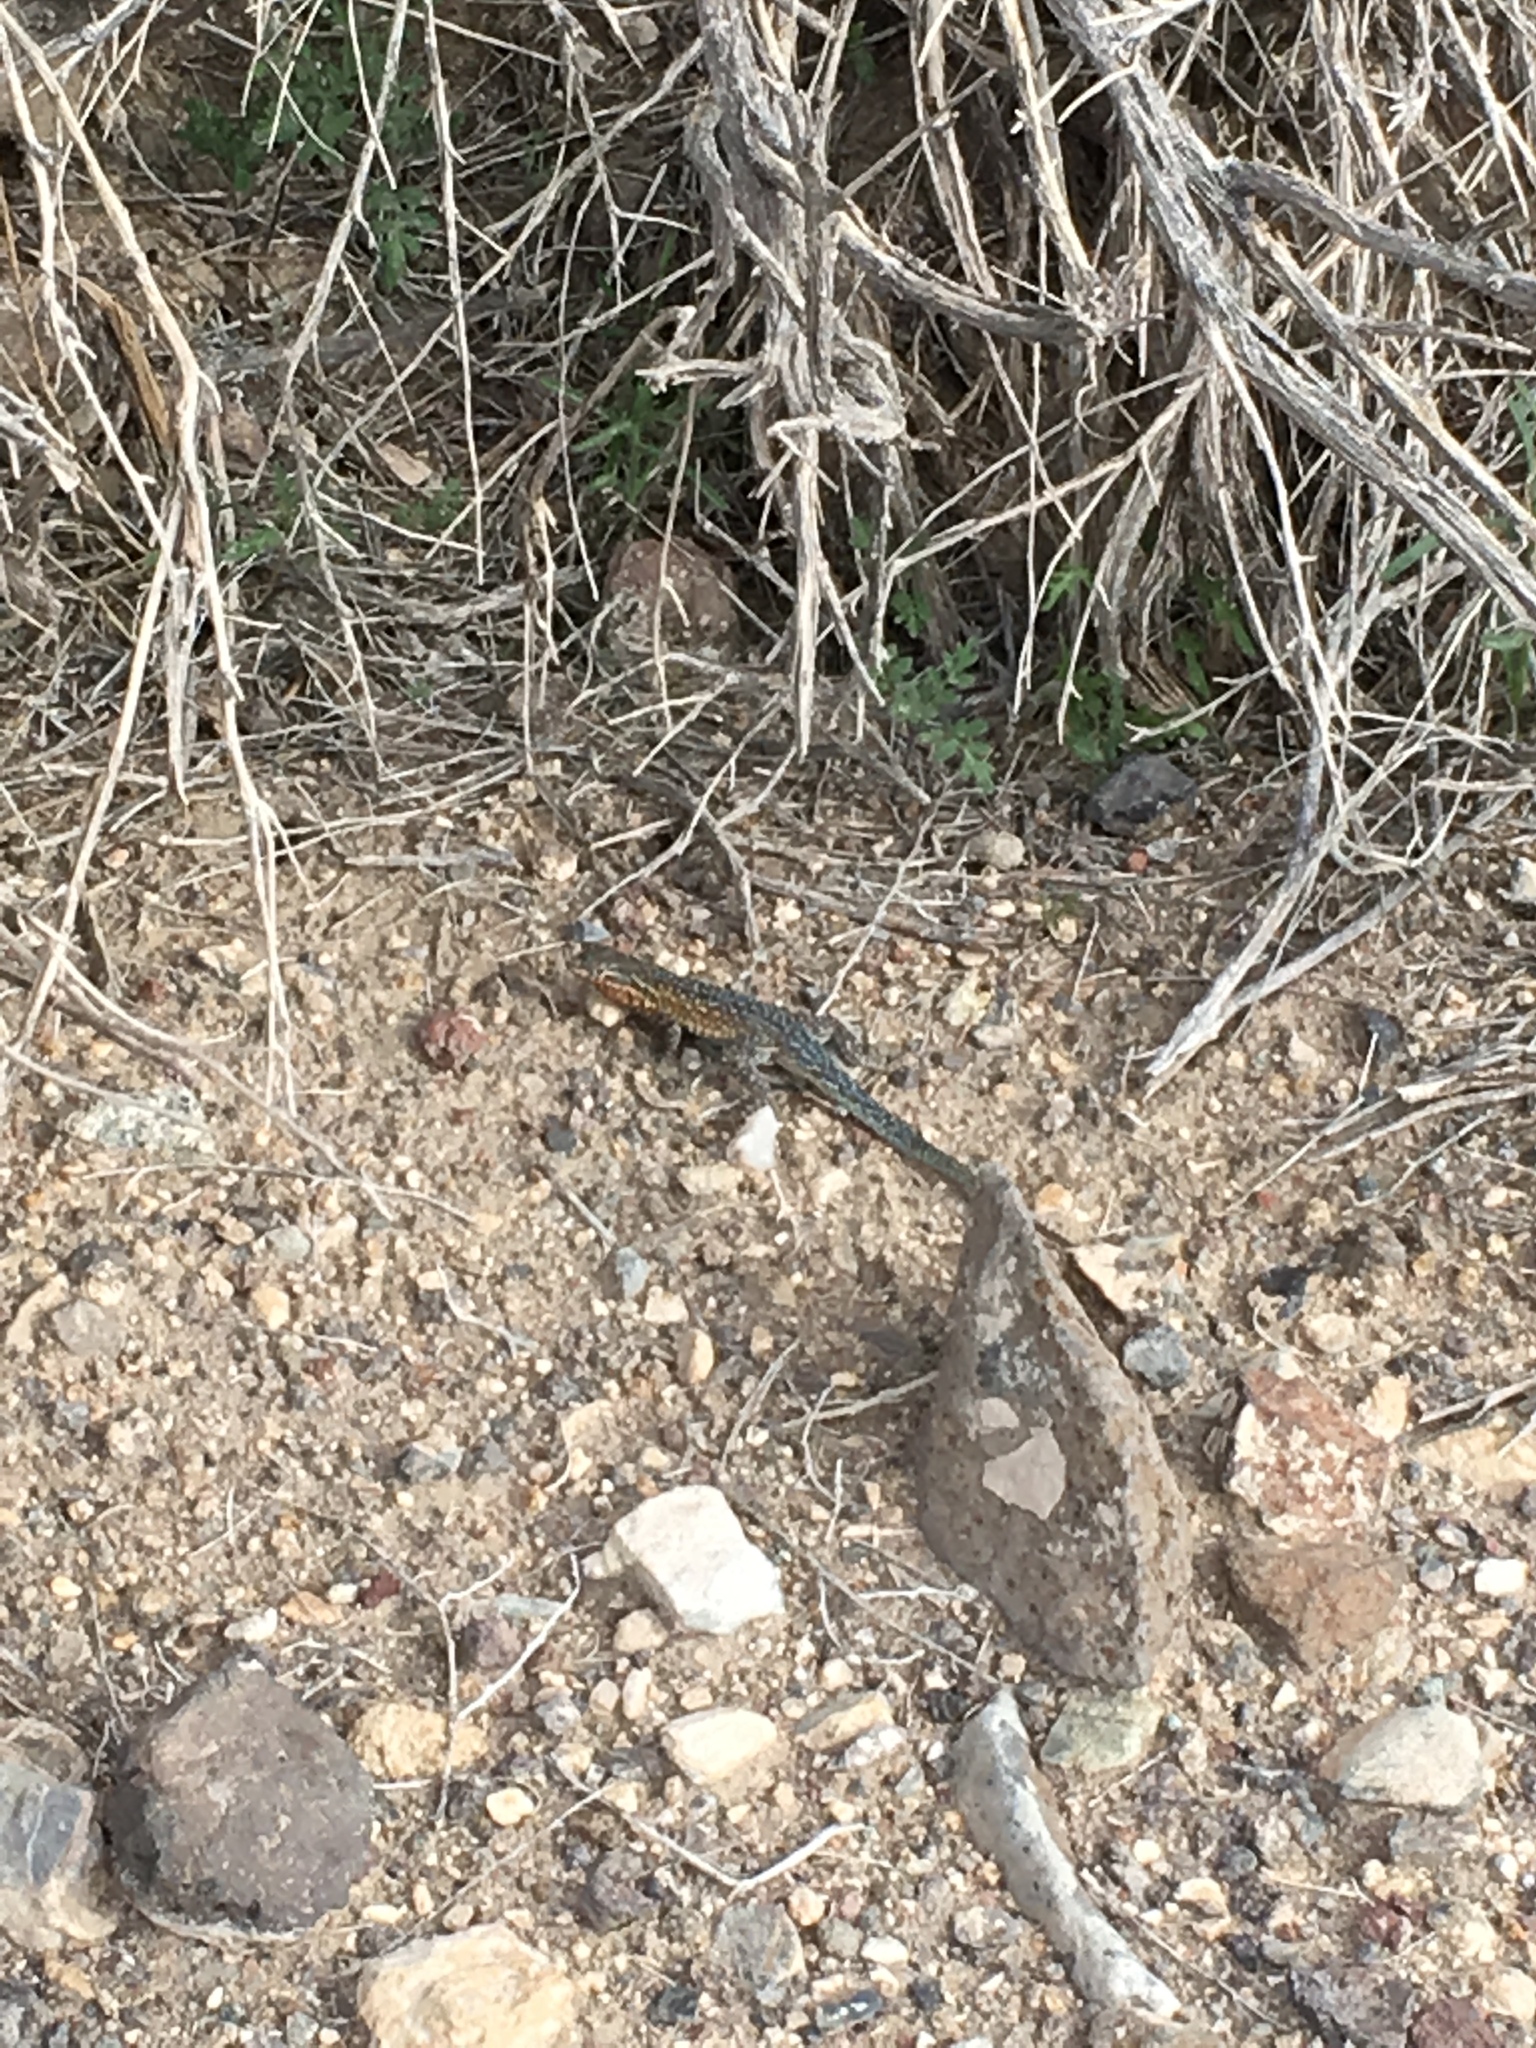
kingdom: Animalia
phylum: Chordata
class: Squamata
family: Phrynosomatidae
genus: Uta
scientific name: Uta stansburiana
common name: Side-blotched lizard
